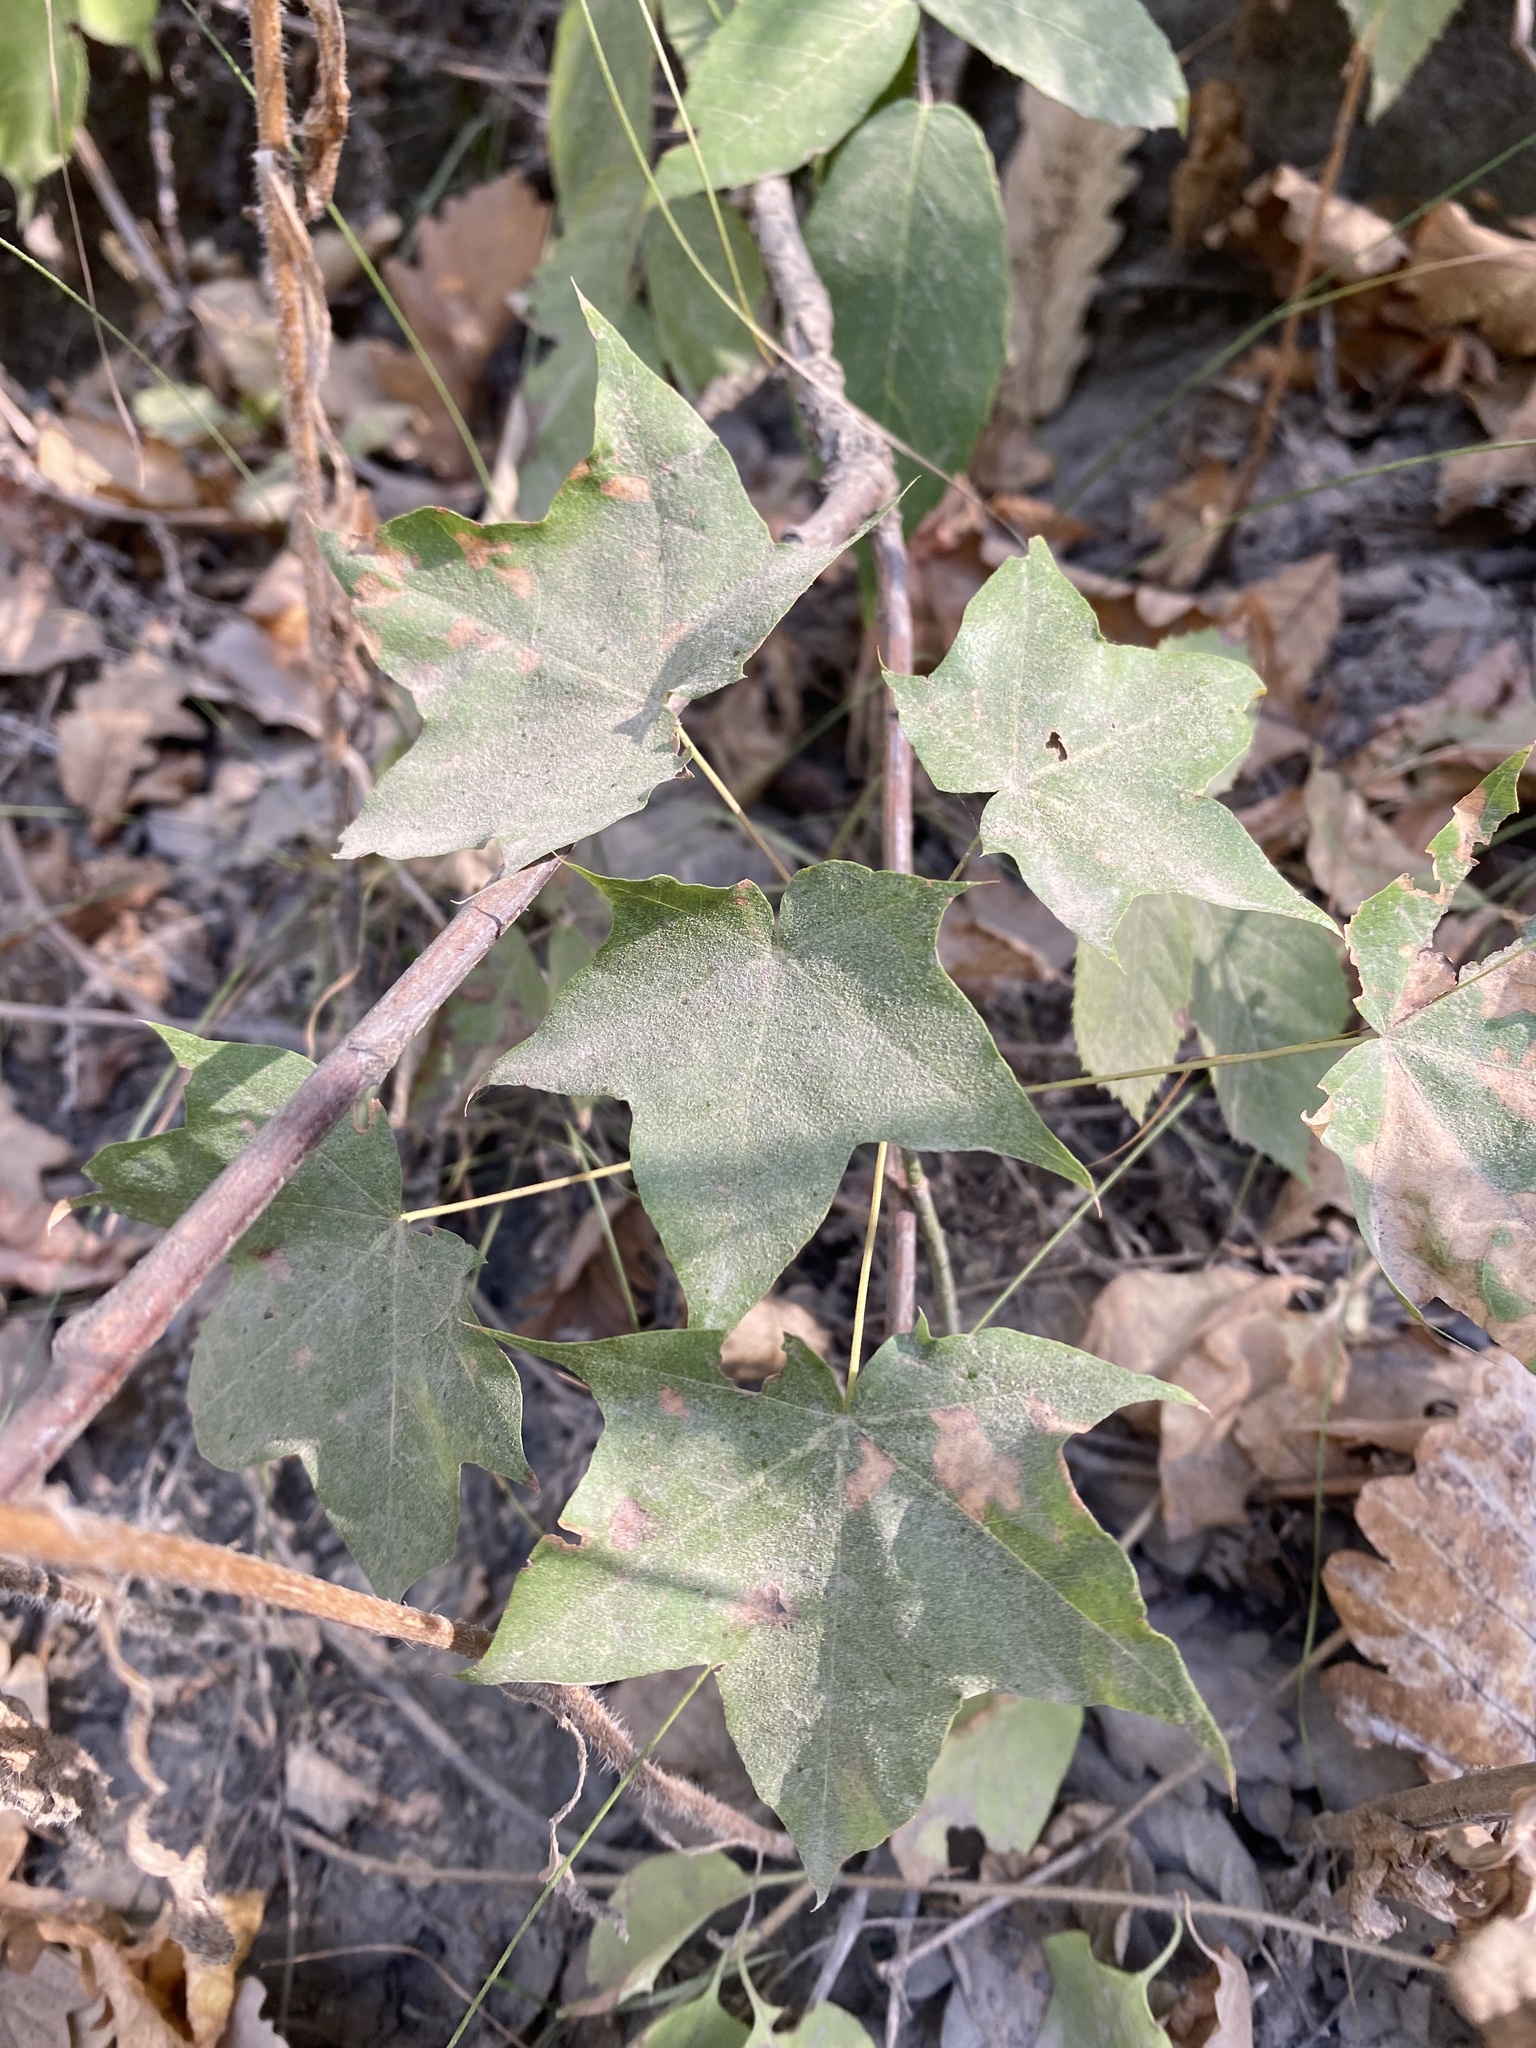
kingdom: Plantae
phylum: Tracheophyta
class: Magnoliopsida
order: Sapindales
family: Sapindaceae
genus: Acer
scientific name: Acer cappadocicum
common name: Cappadocian maple
